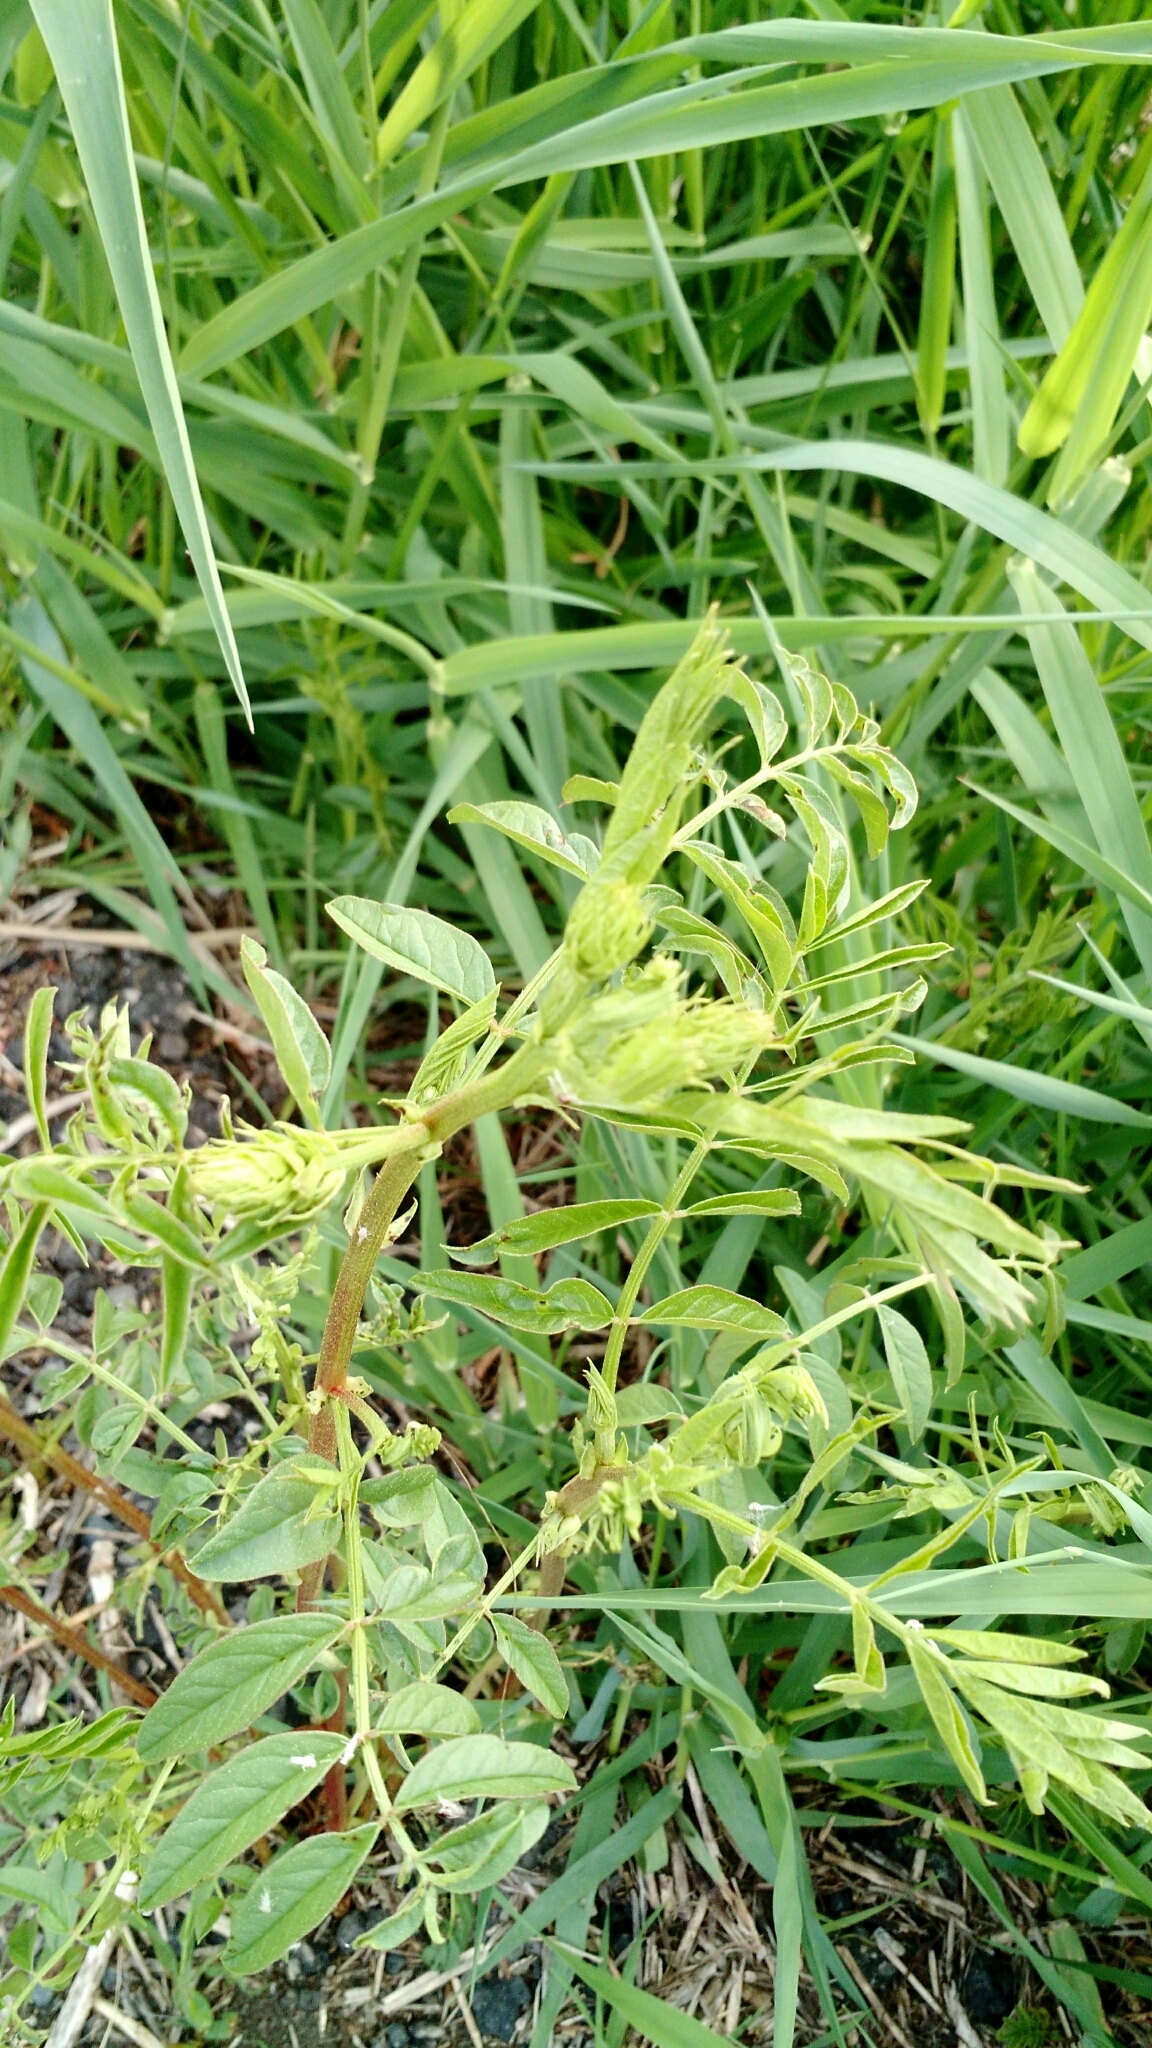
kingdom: Plantae
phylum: Tracheophyta
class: Magnoliopsida
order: Fabales
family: Fabaceae
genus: Glycyrrhiza
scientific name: Glycyrrhiza lepidota
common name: American liquorice
